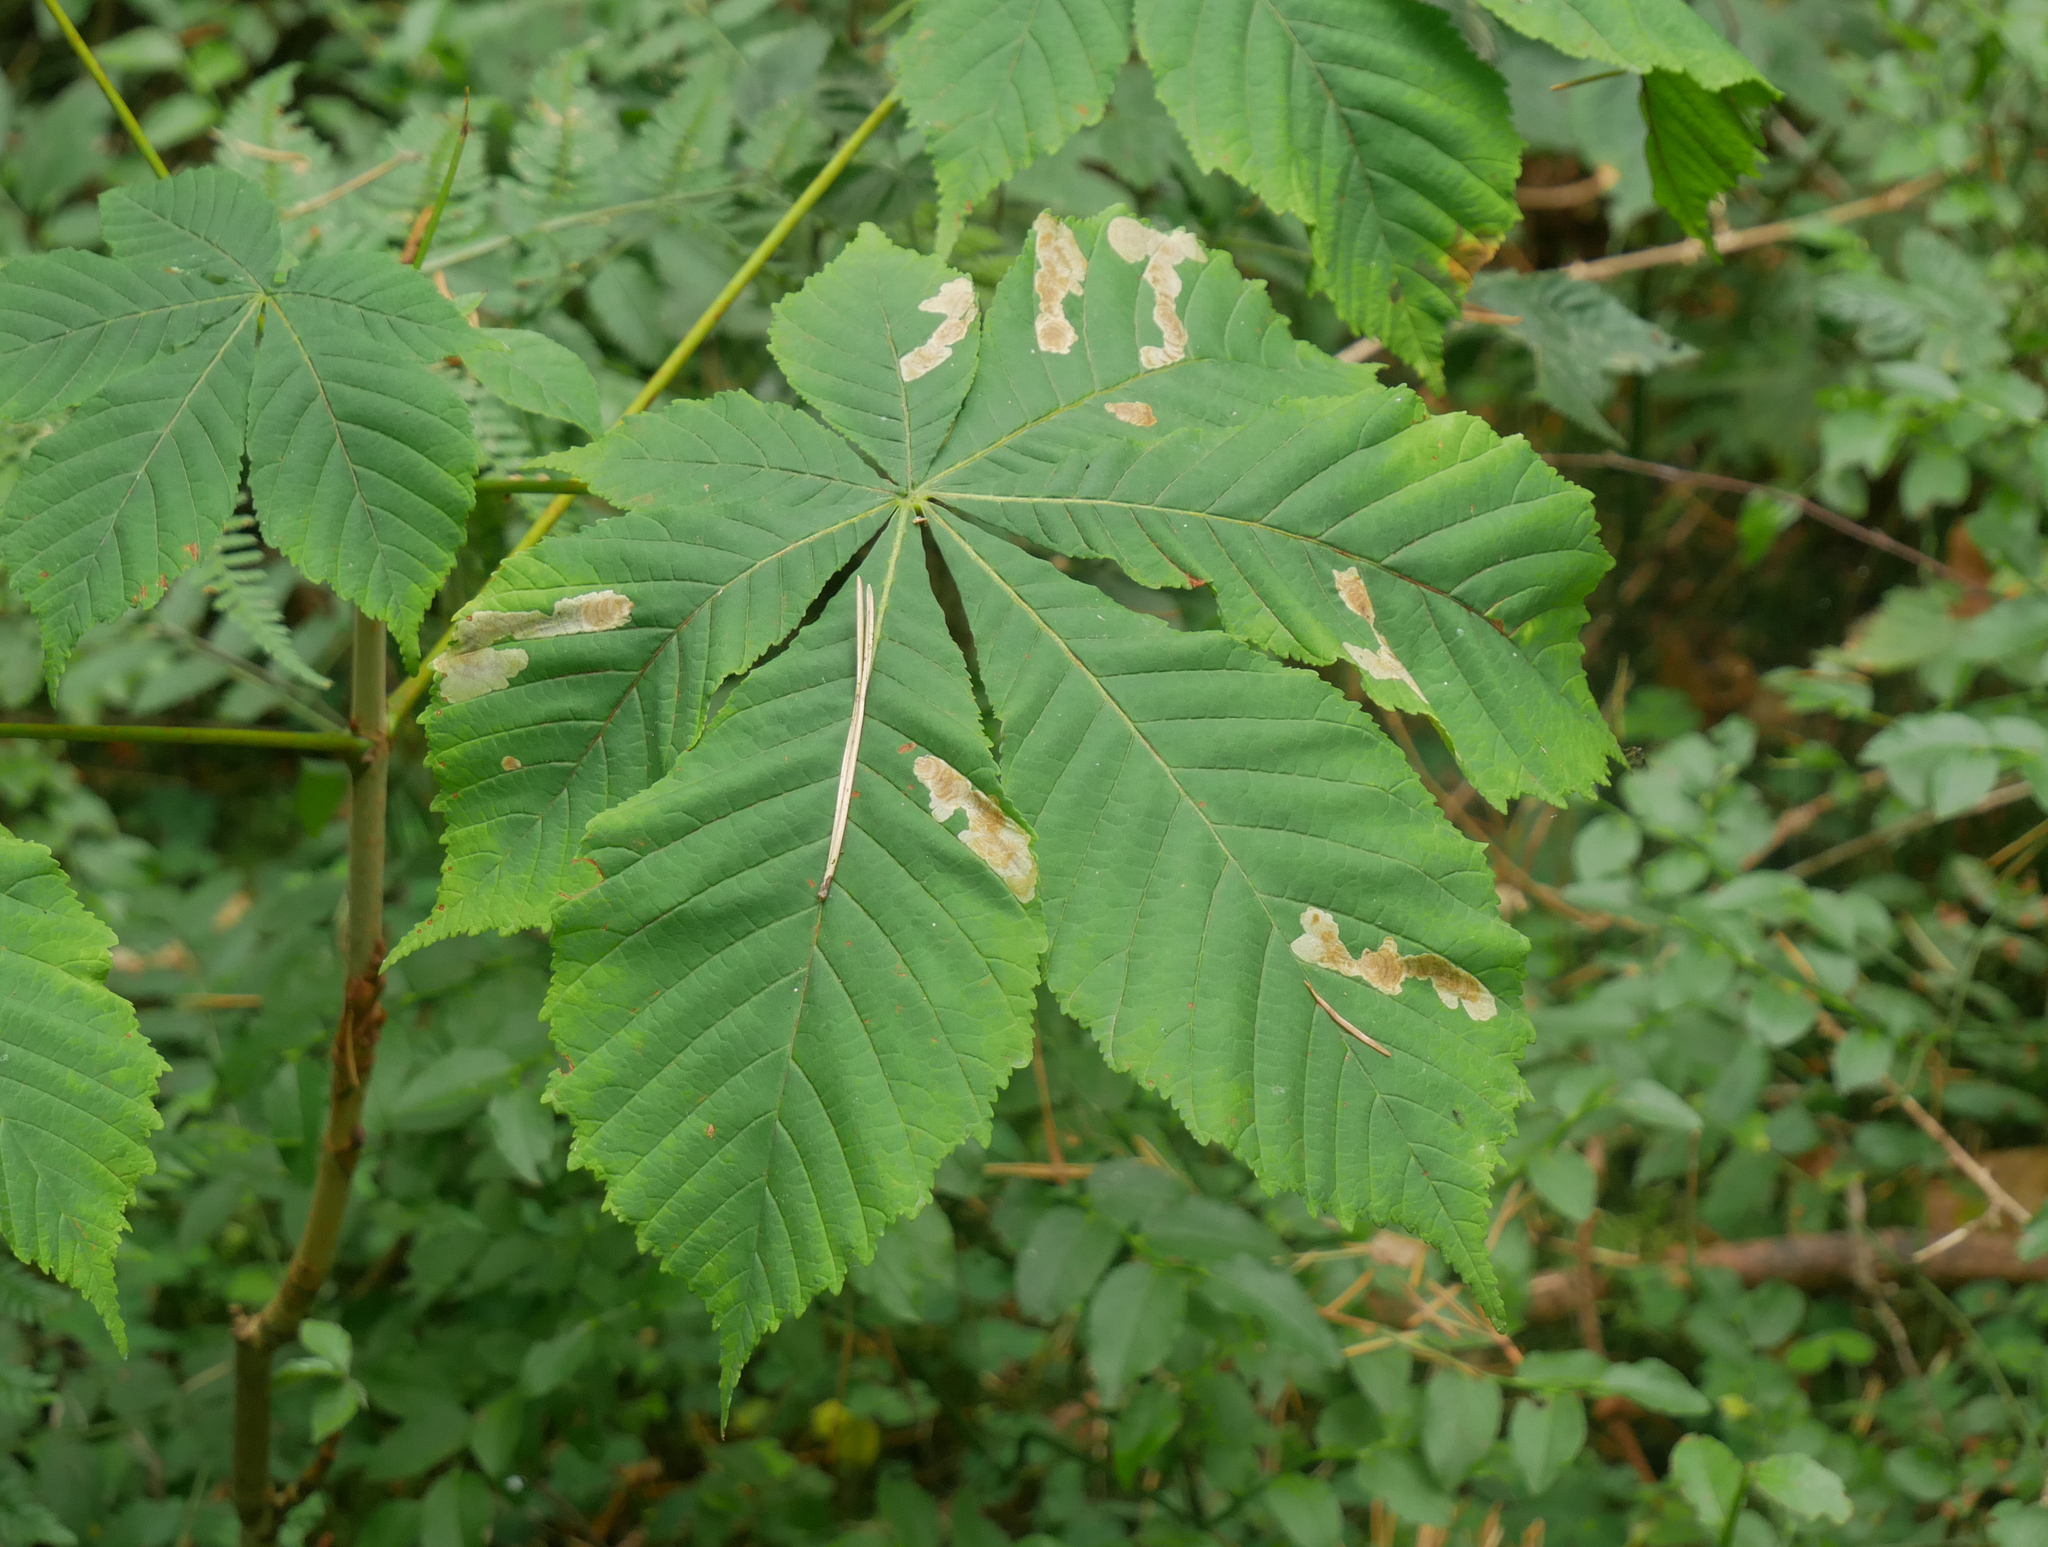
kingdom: Plantae
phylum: Tracheophyta
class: Magnoliopsida
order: Sapindales
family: Sapindaceae
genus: Aesculus
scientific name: Aesculus hippocastanum
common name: Horse-chestnut
